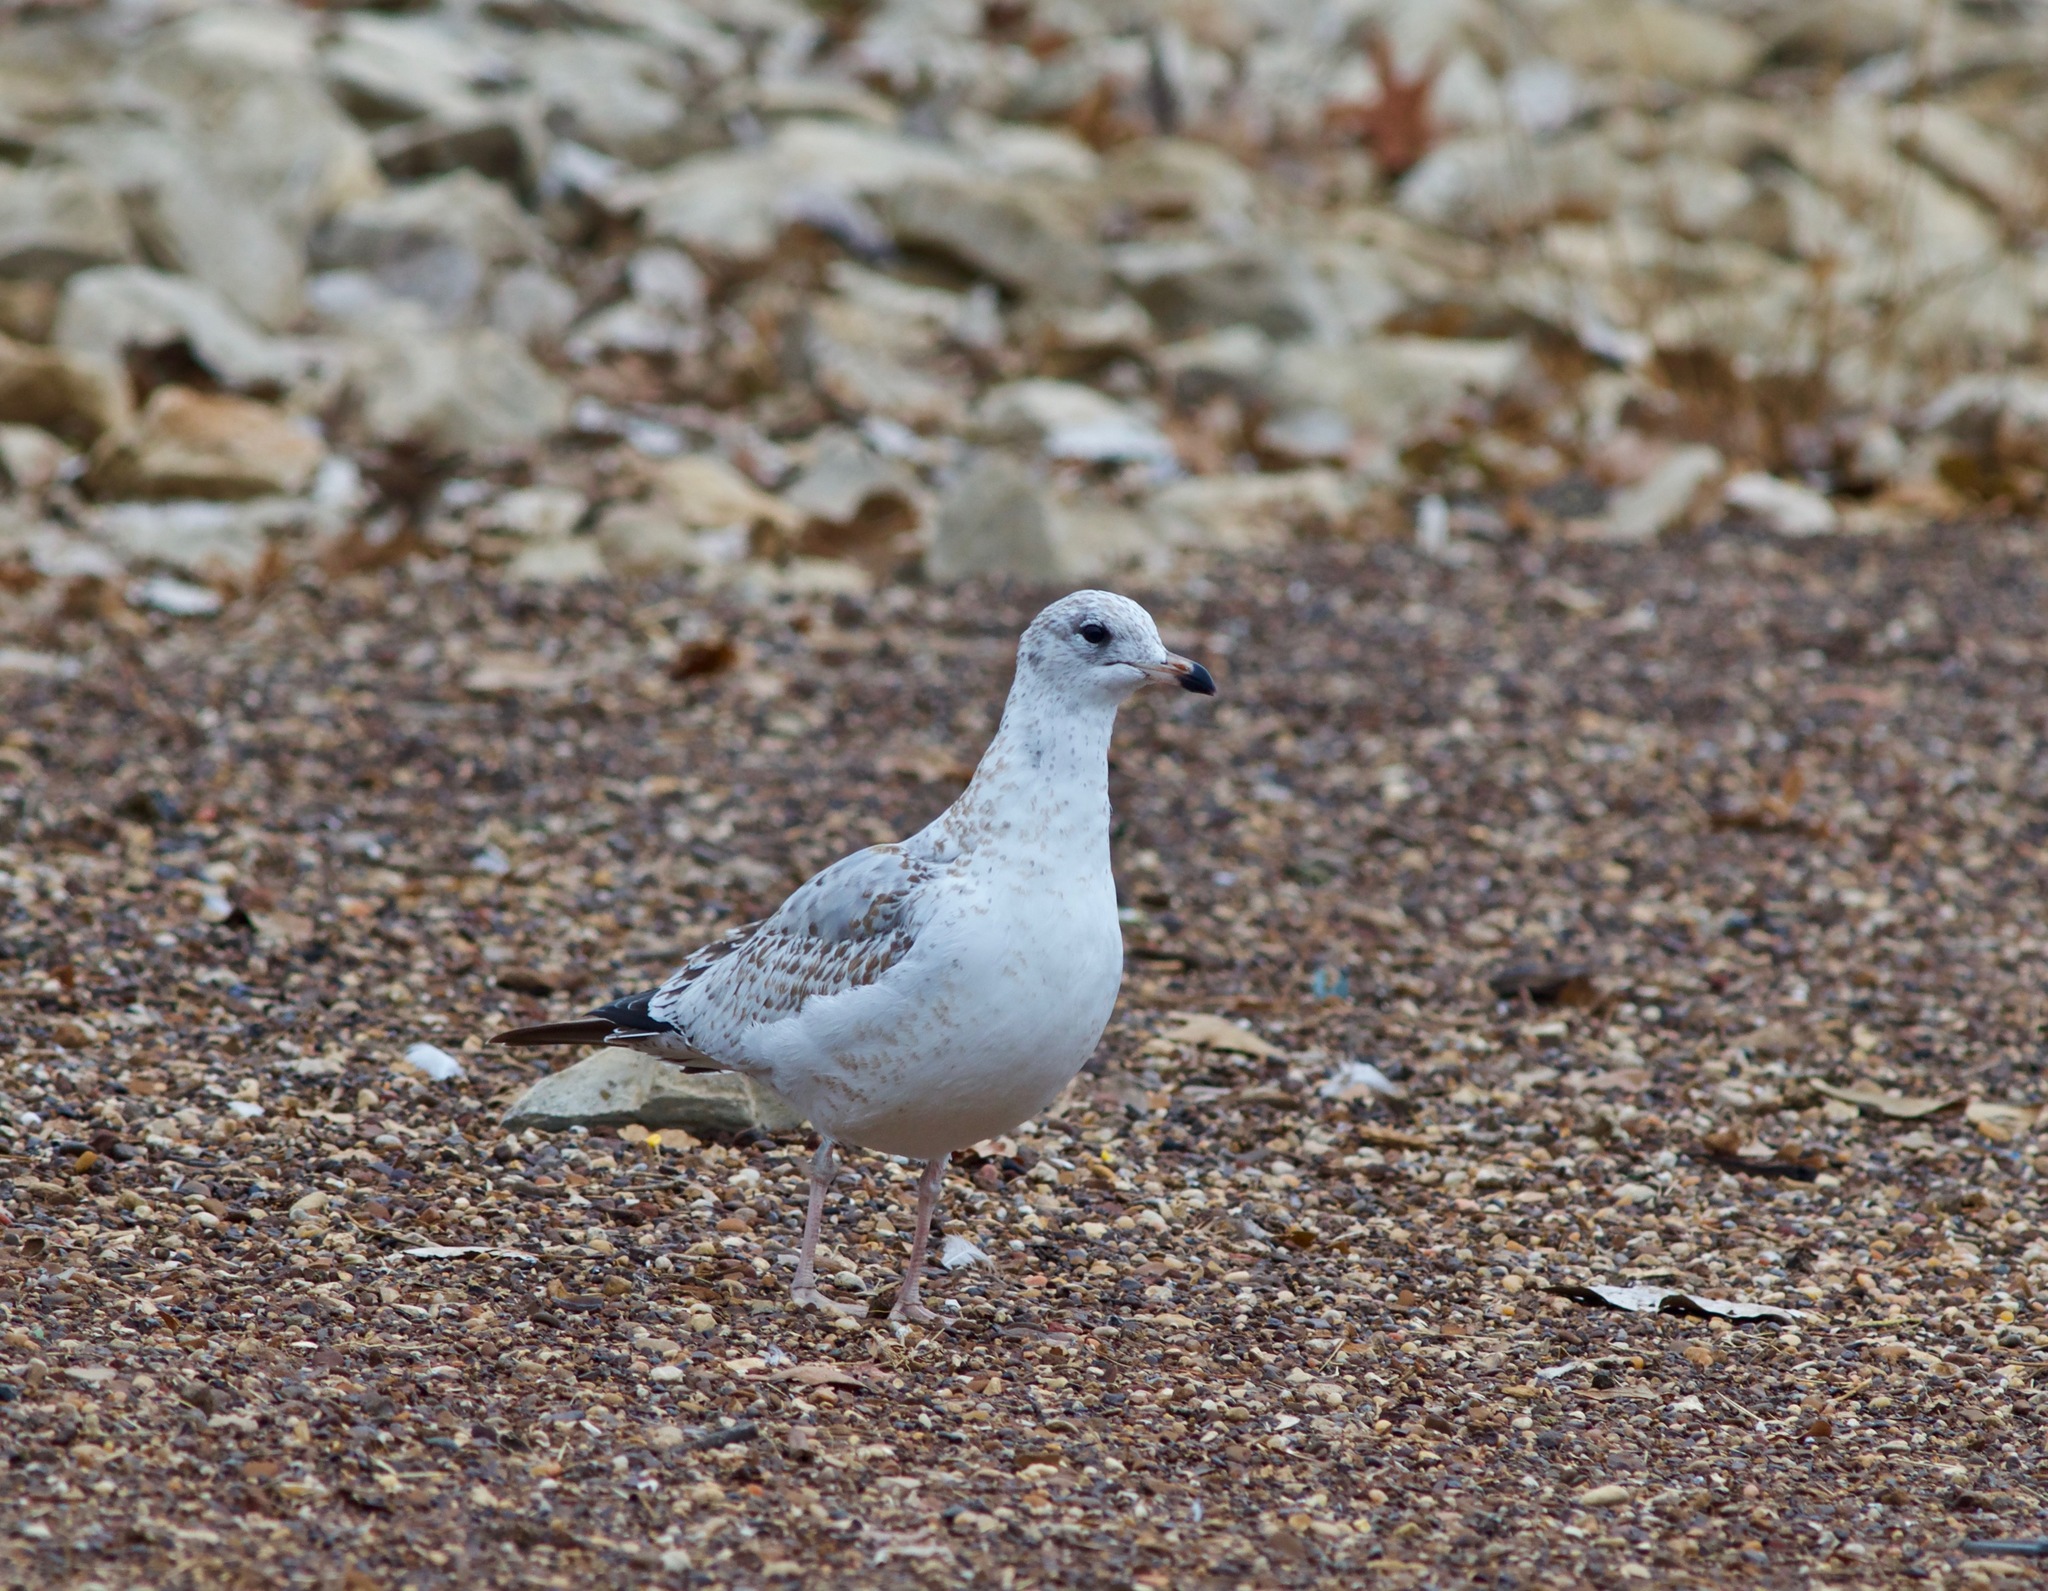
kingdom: Animalia
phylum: Chordata
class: Aves
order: Charadriiformes
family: Laridae
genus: Larus
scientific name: Larus delawarensis
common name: Ring-billed gull
